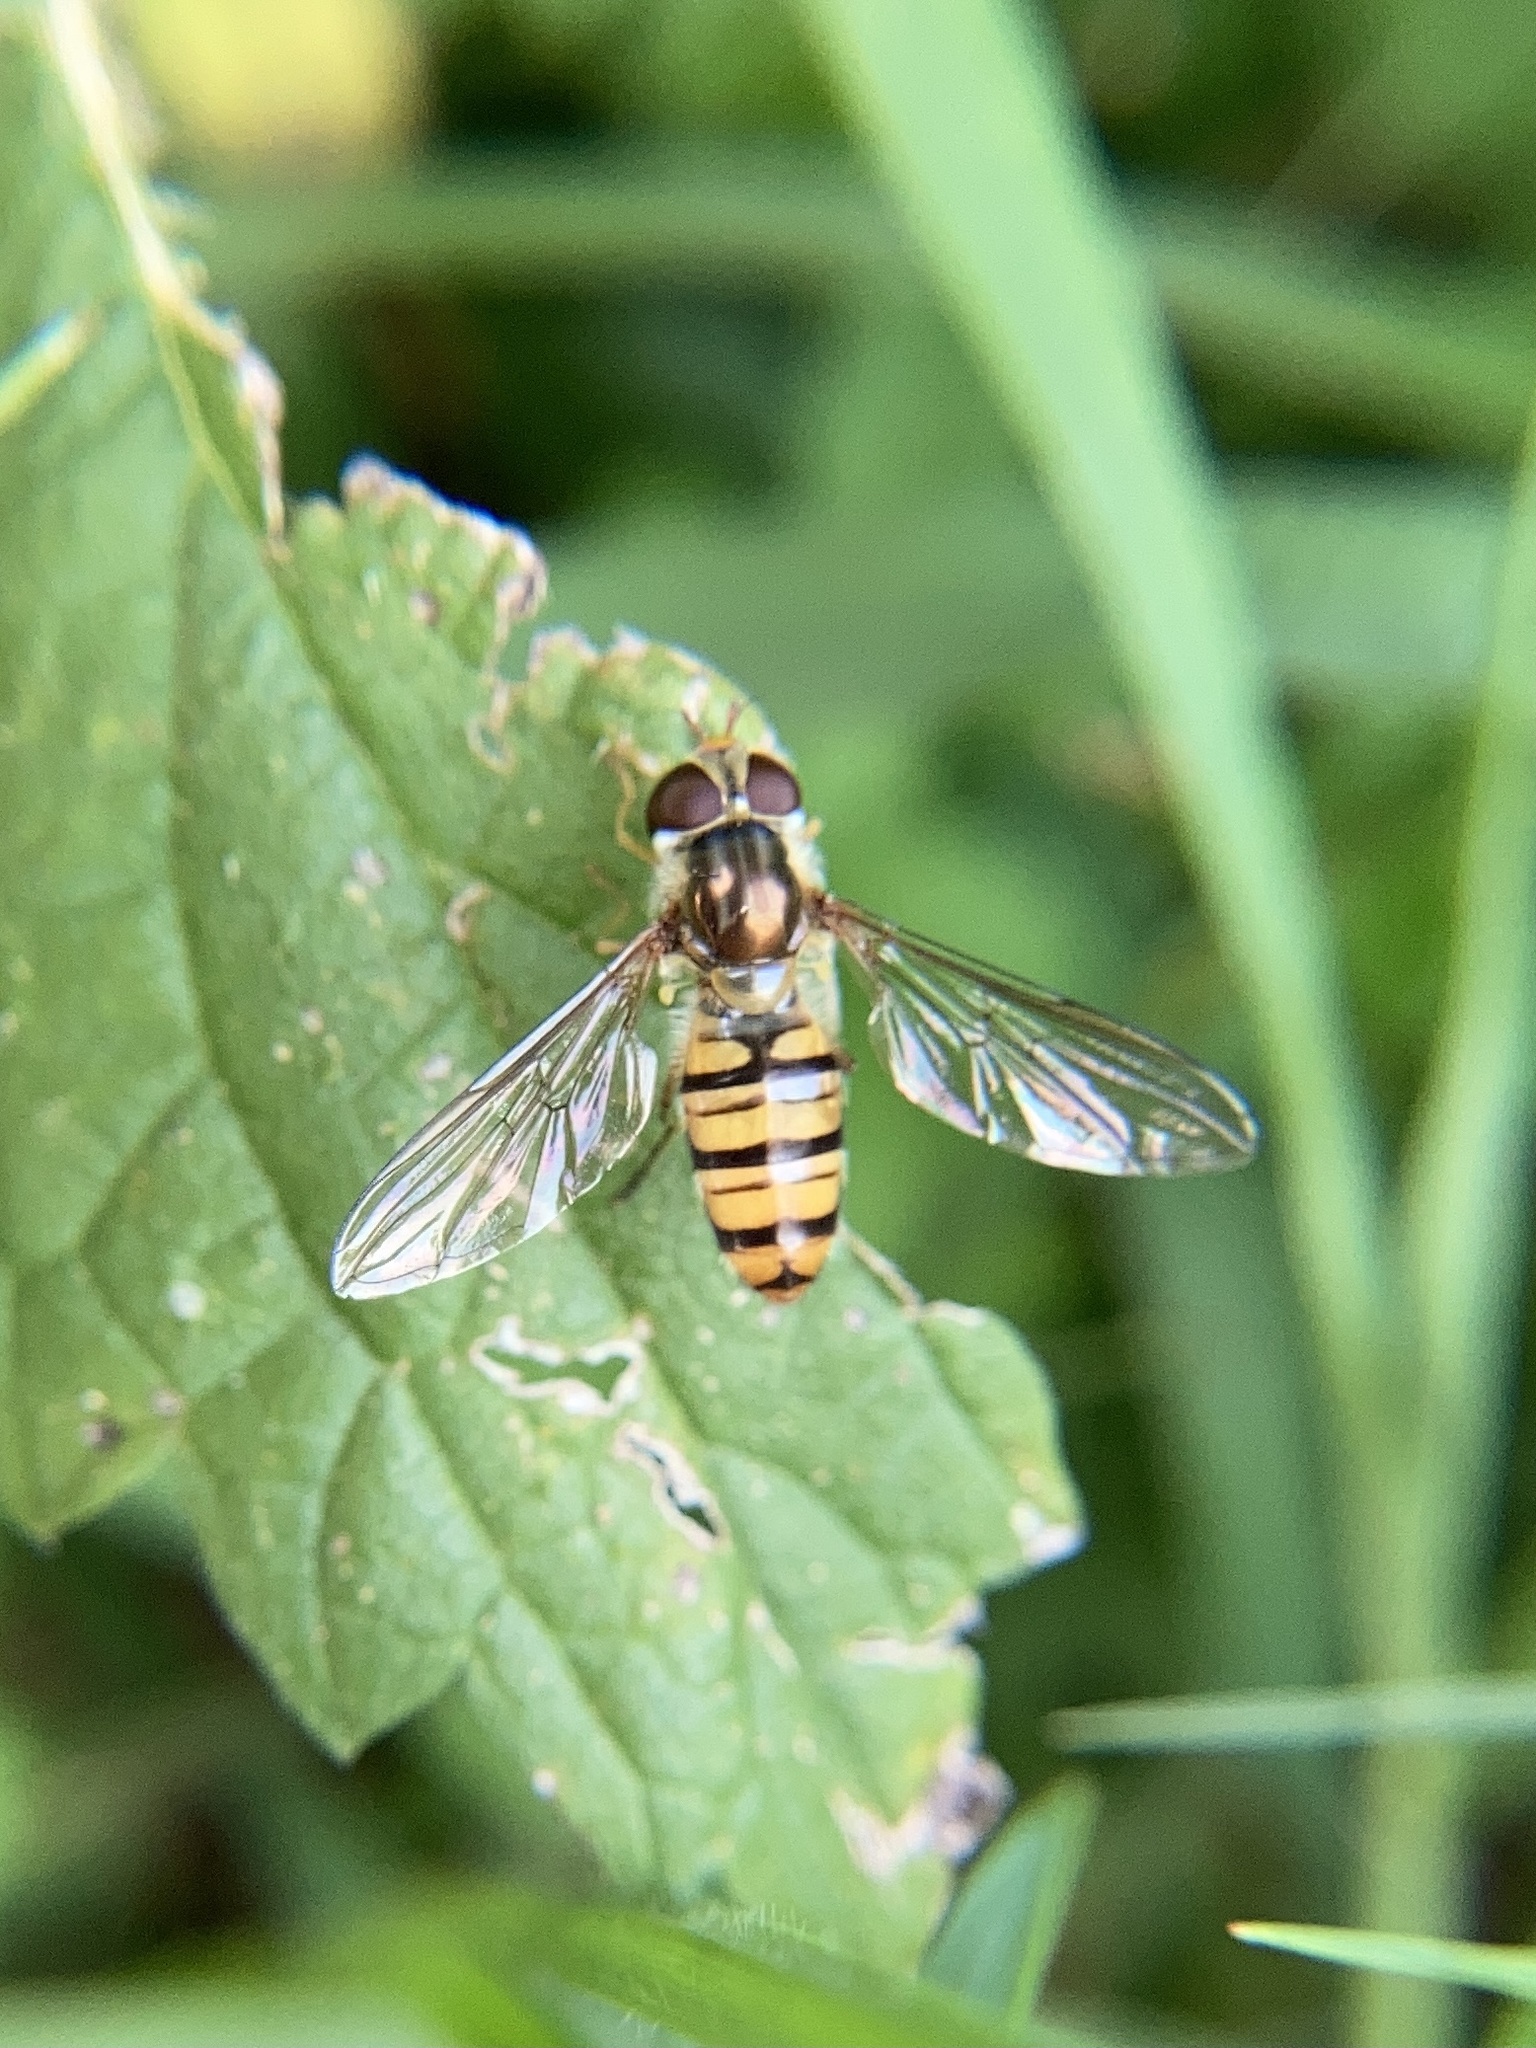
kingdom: Animalia
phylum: Arthropoda
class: Insecta
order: Diptera
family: Syrphidae
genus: Episyrphus
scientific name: Episyrphus balteatus
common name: Marmalade hoverfly
